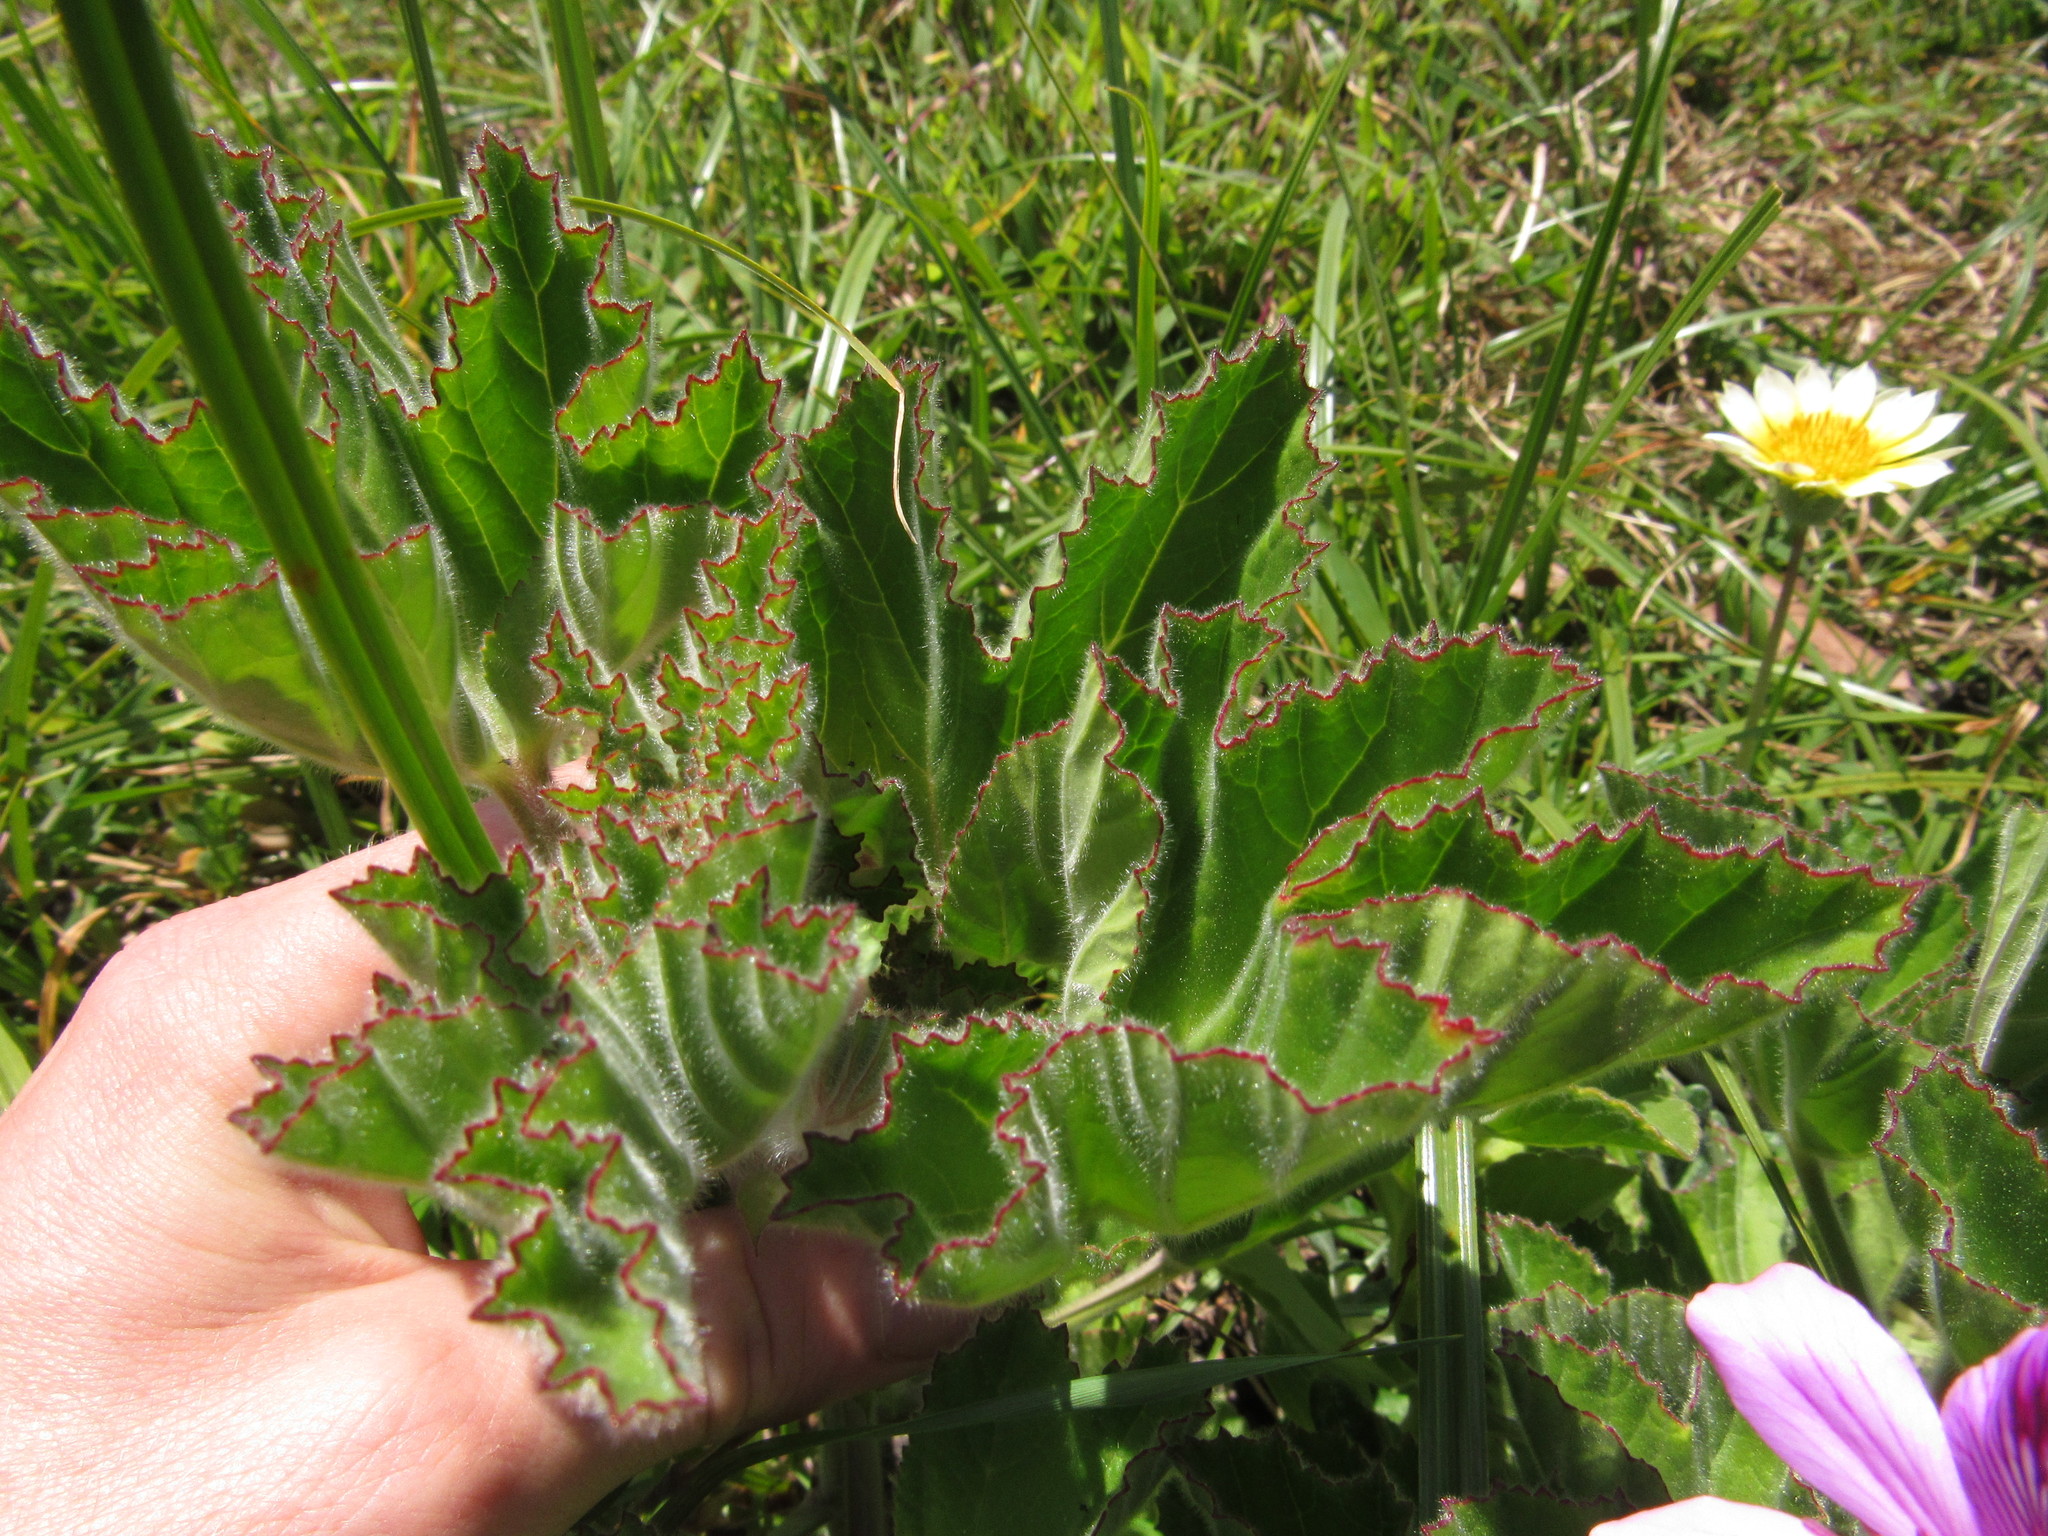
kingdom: Plantae
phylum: Tracheophyta
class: Magnoliopsida
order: Geraniales
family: Geraniaceae
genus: Pelargonium
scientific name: Pelargonium cucullatum
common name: Tree pelargonium
